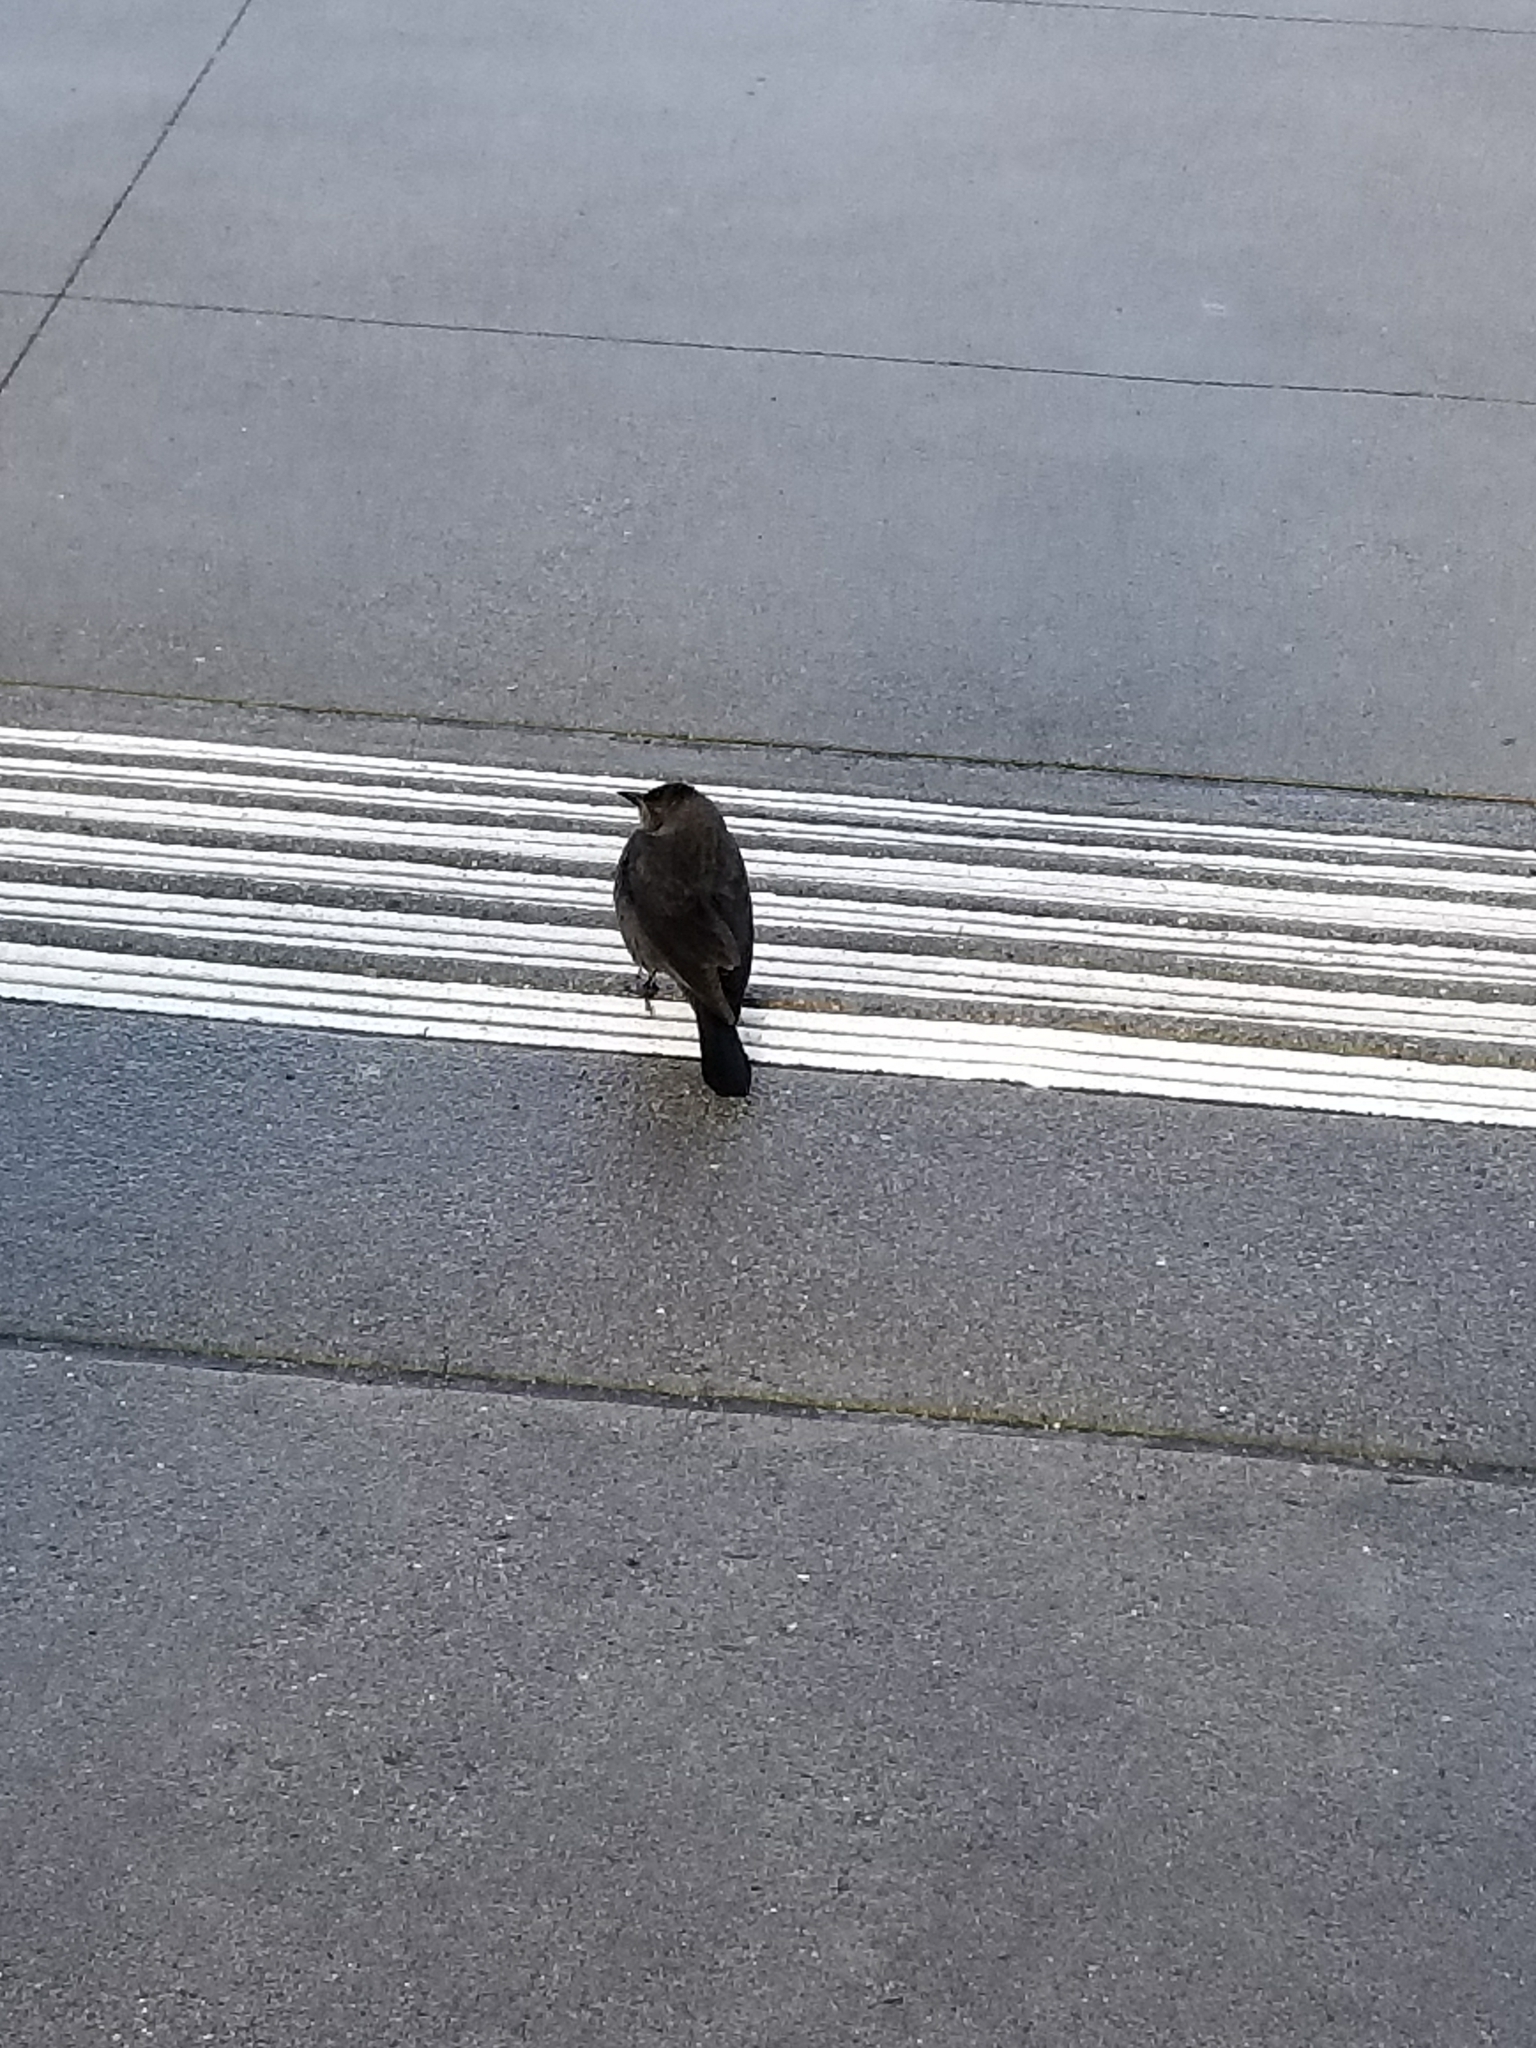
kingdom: Animalia
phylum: Chordata
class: Aves
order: Passeriformes
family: Icteridae
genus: Euphagus
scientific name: Euphagus cyanocephalus
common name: Brewer's blackbird
